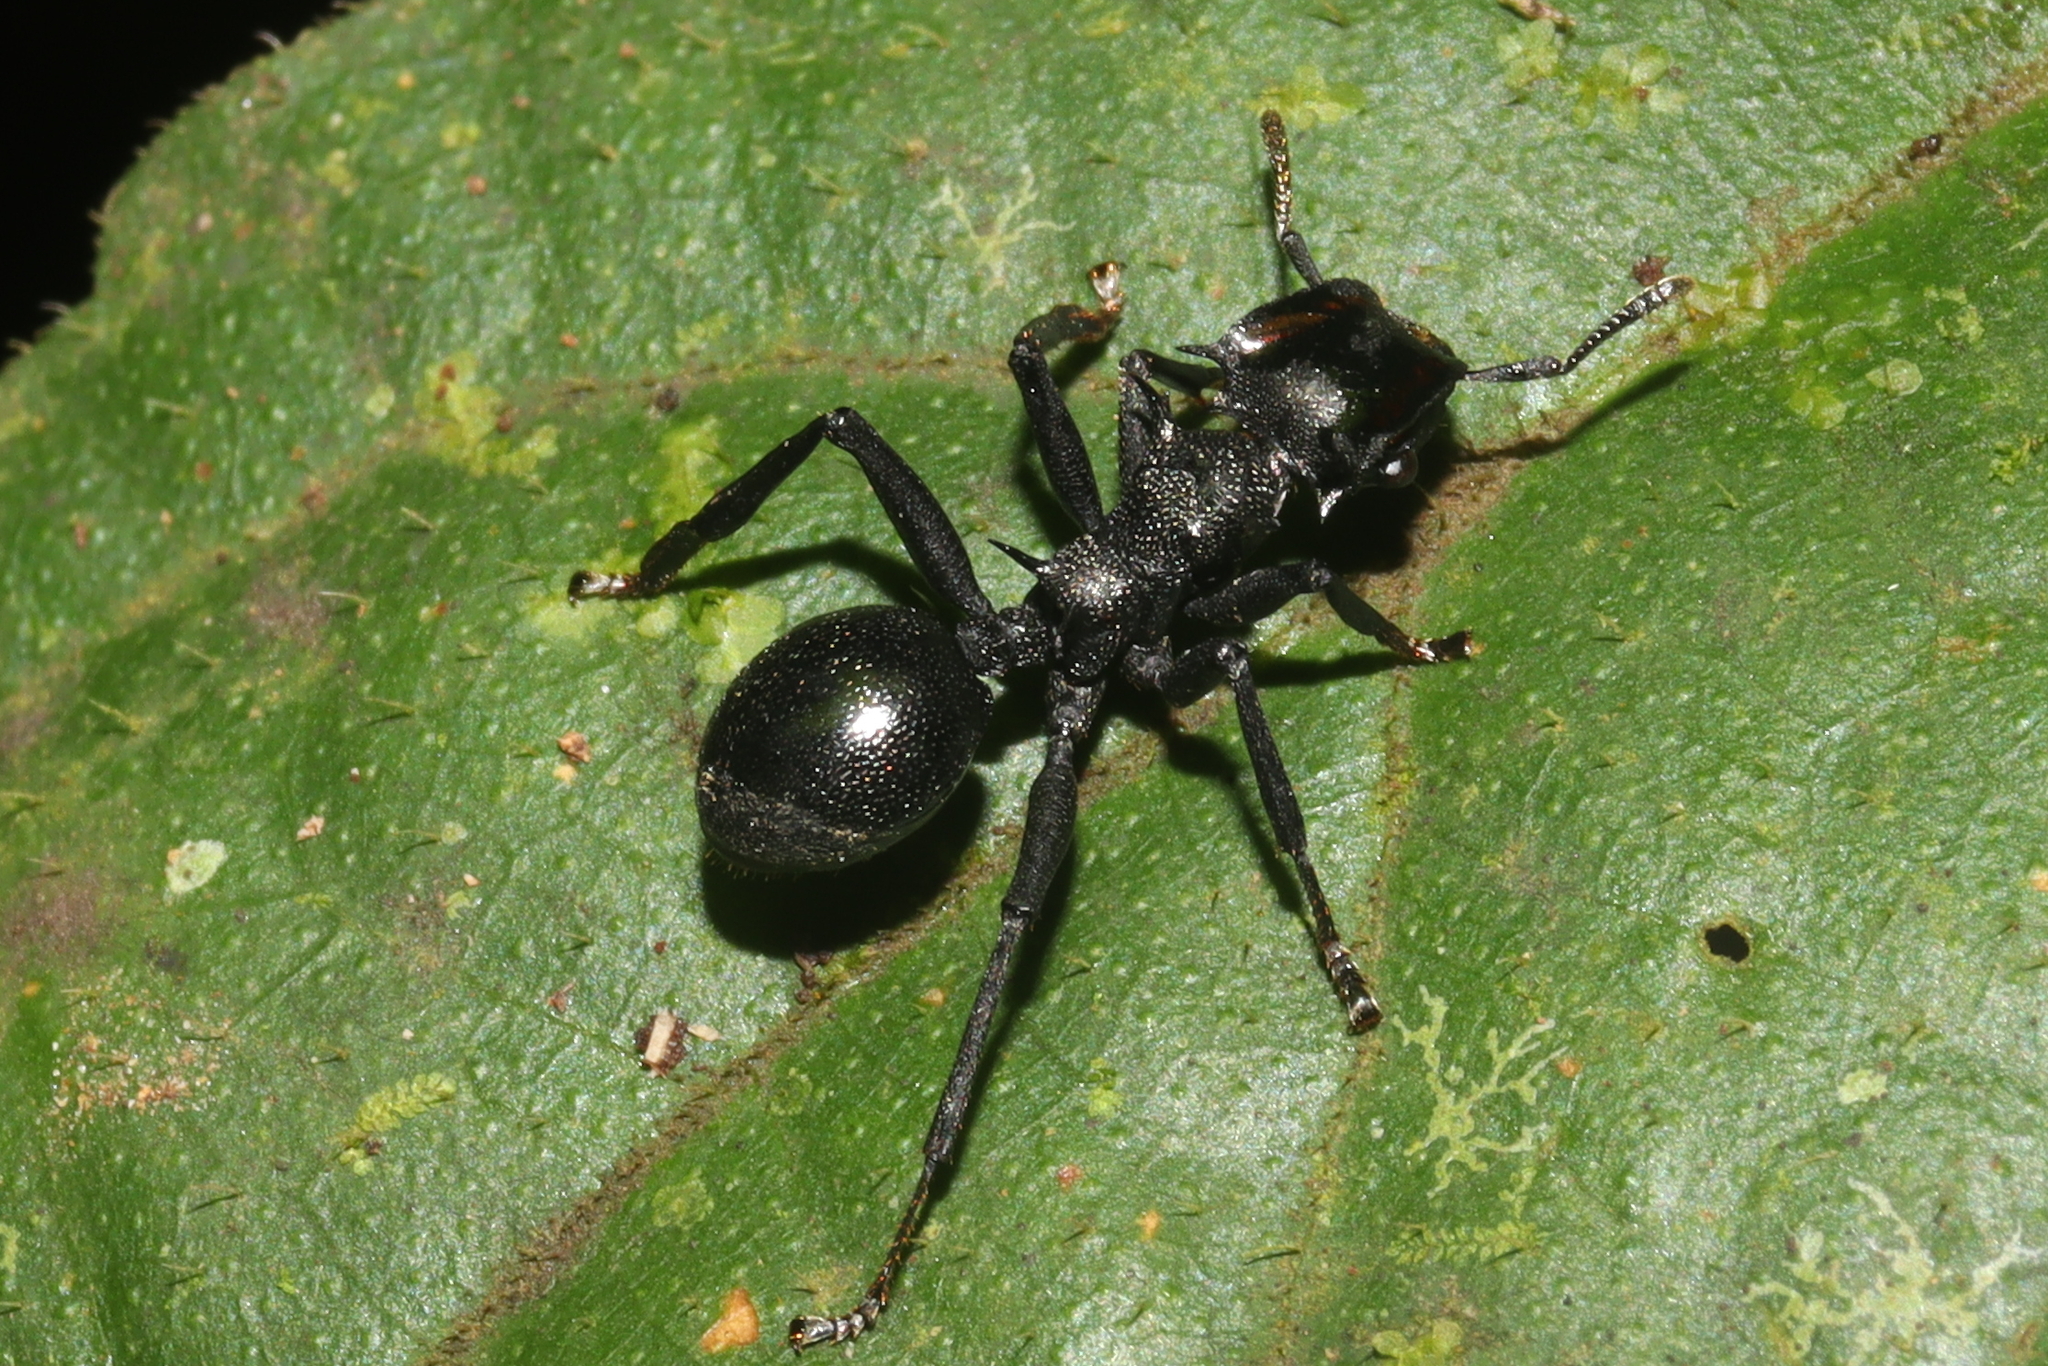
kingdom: Animalia
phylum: Arthropoda
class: Insecta
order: Hymenoptera
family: Formicidae
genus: Cephalotes
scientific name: Cephalotes atratus
